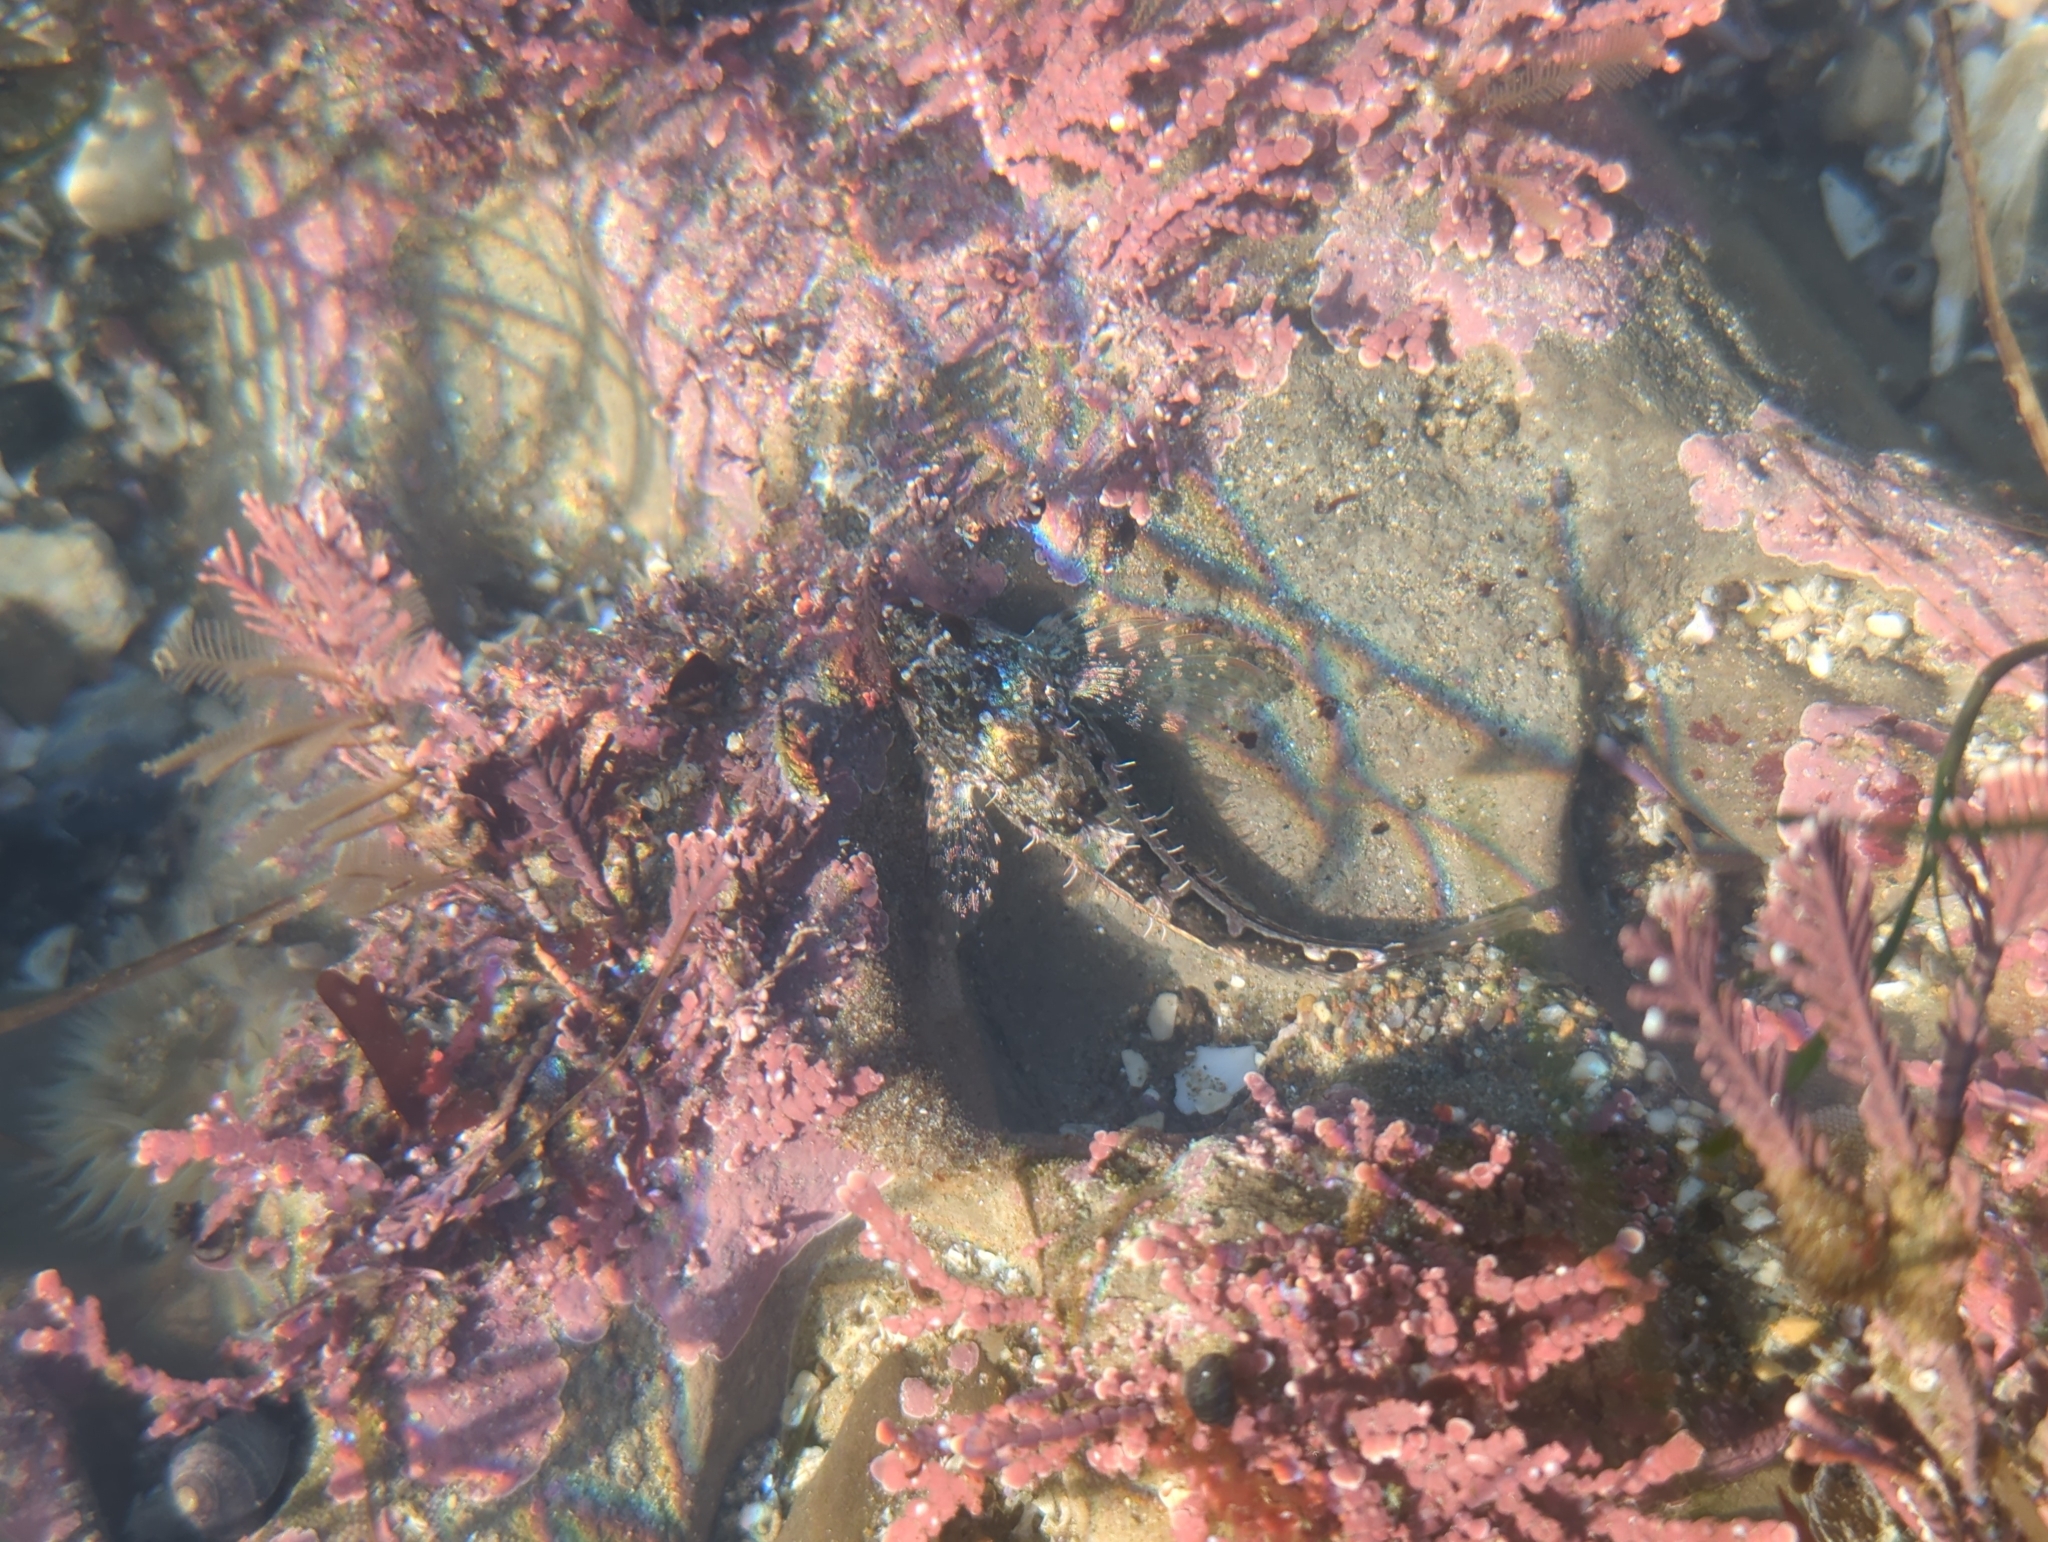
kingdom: Animalia
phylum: Chordata
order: Scorpaeniformes
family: Cottidae
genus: Oligocottus
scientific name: Oligocottus snyderi
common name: Fluffy sculpin
